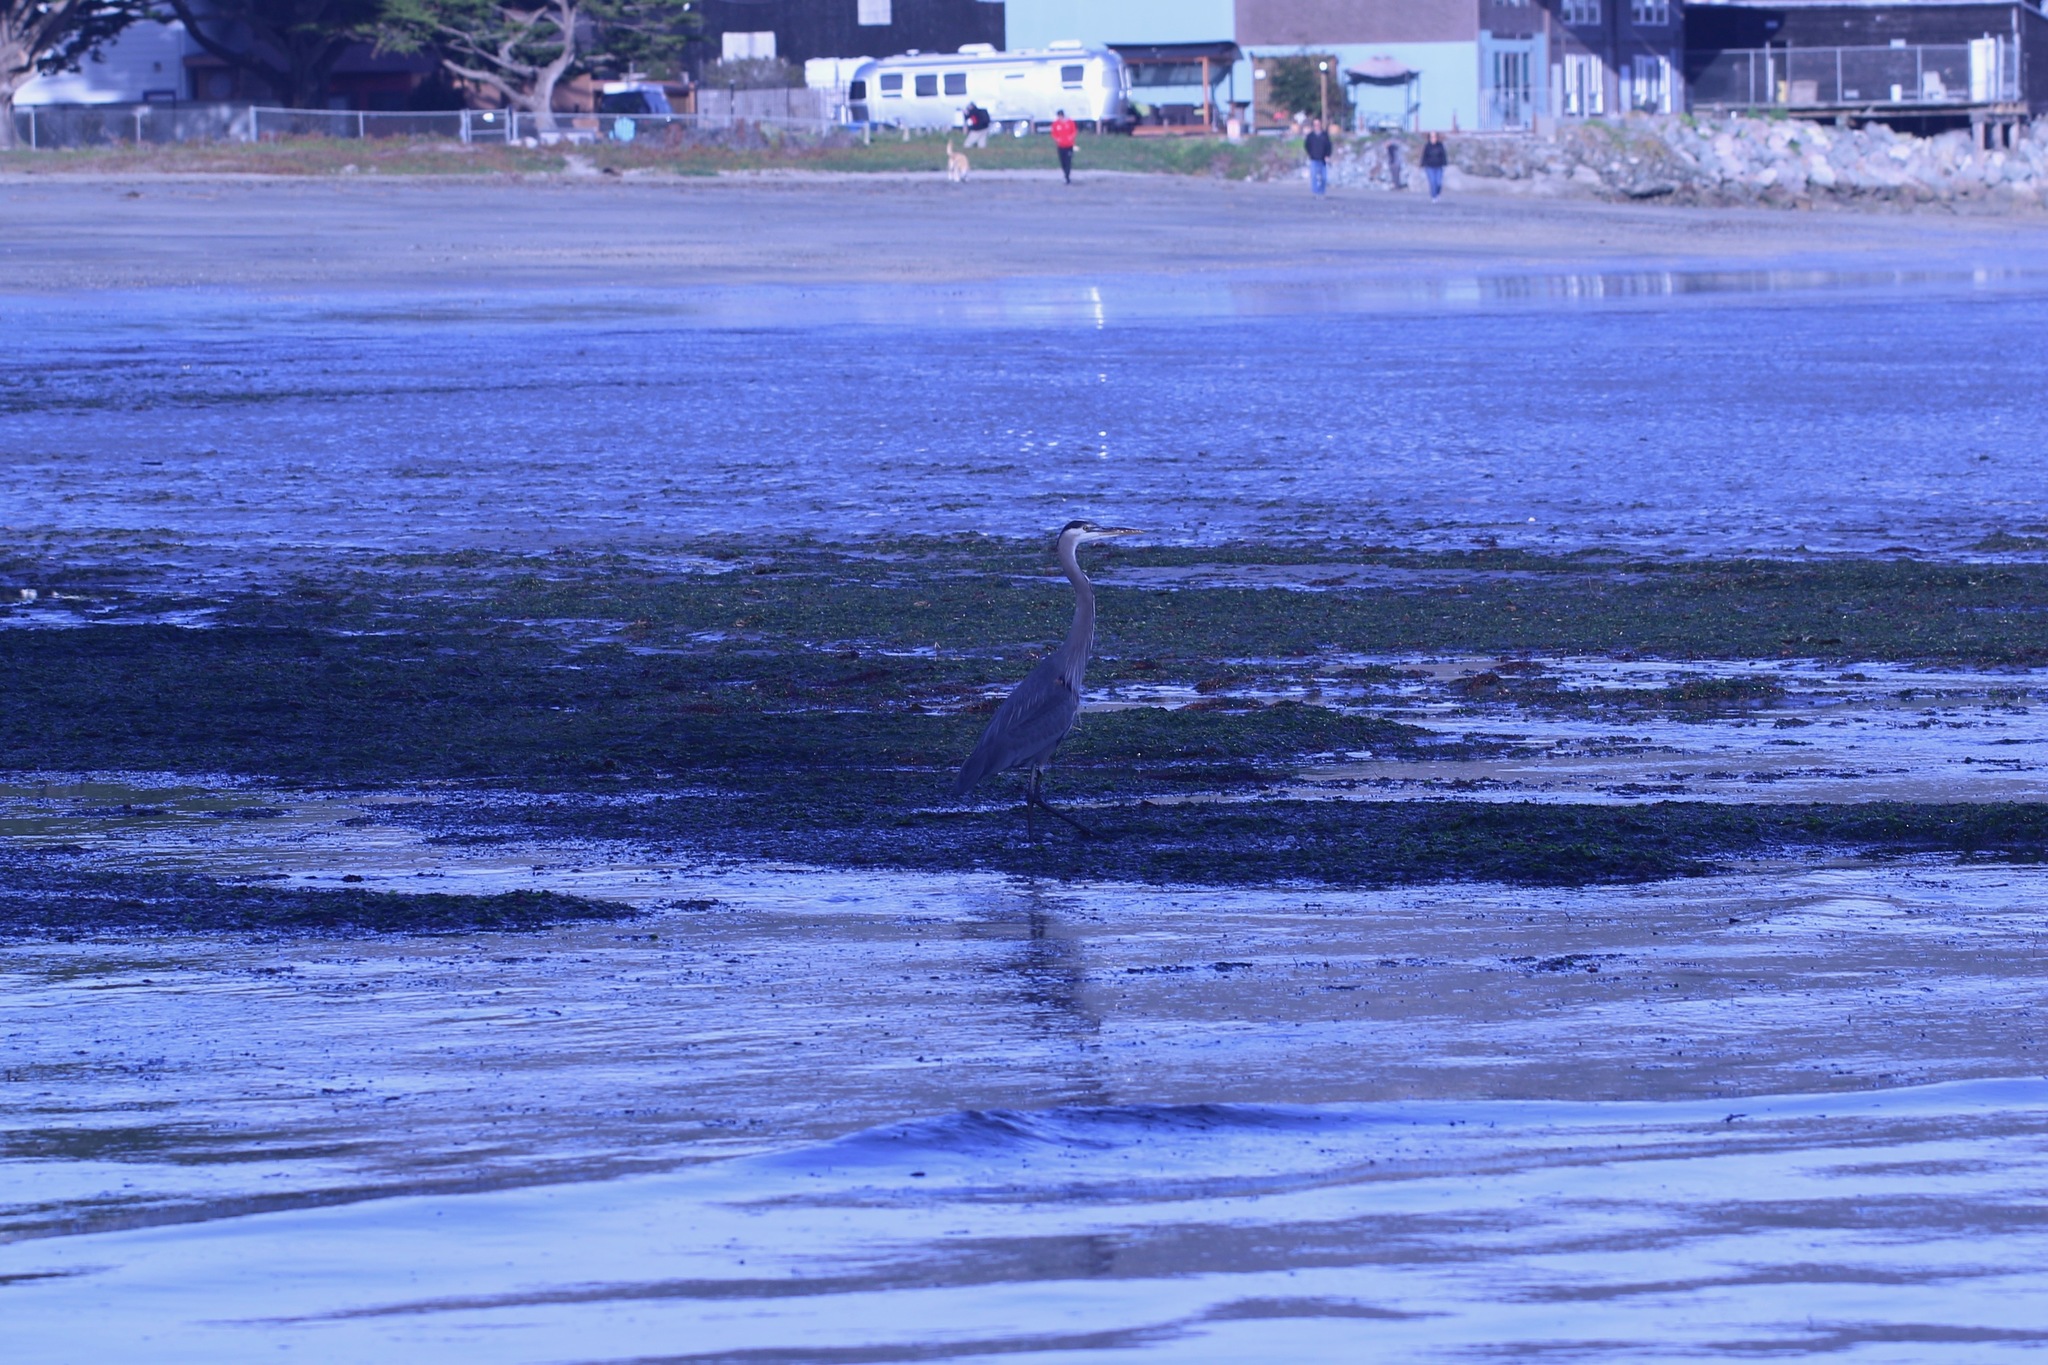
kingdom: Animalia
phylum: Chordata
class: Aves
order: Pelecaniformes
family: Ardeidae
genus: Ardea
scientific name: Ardea herodias
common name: Great blue heron
